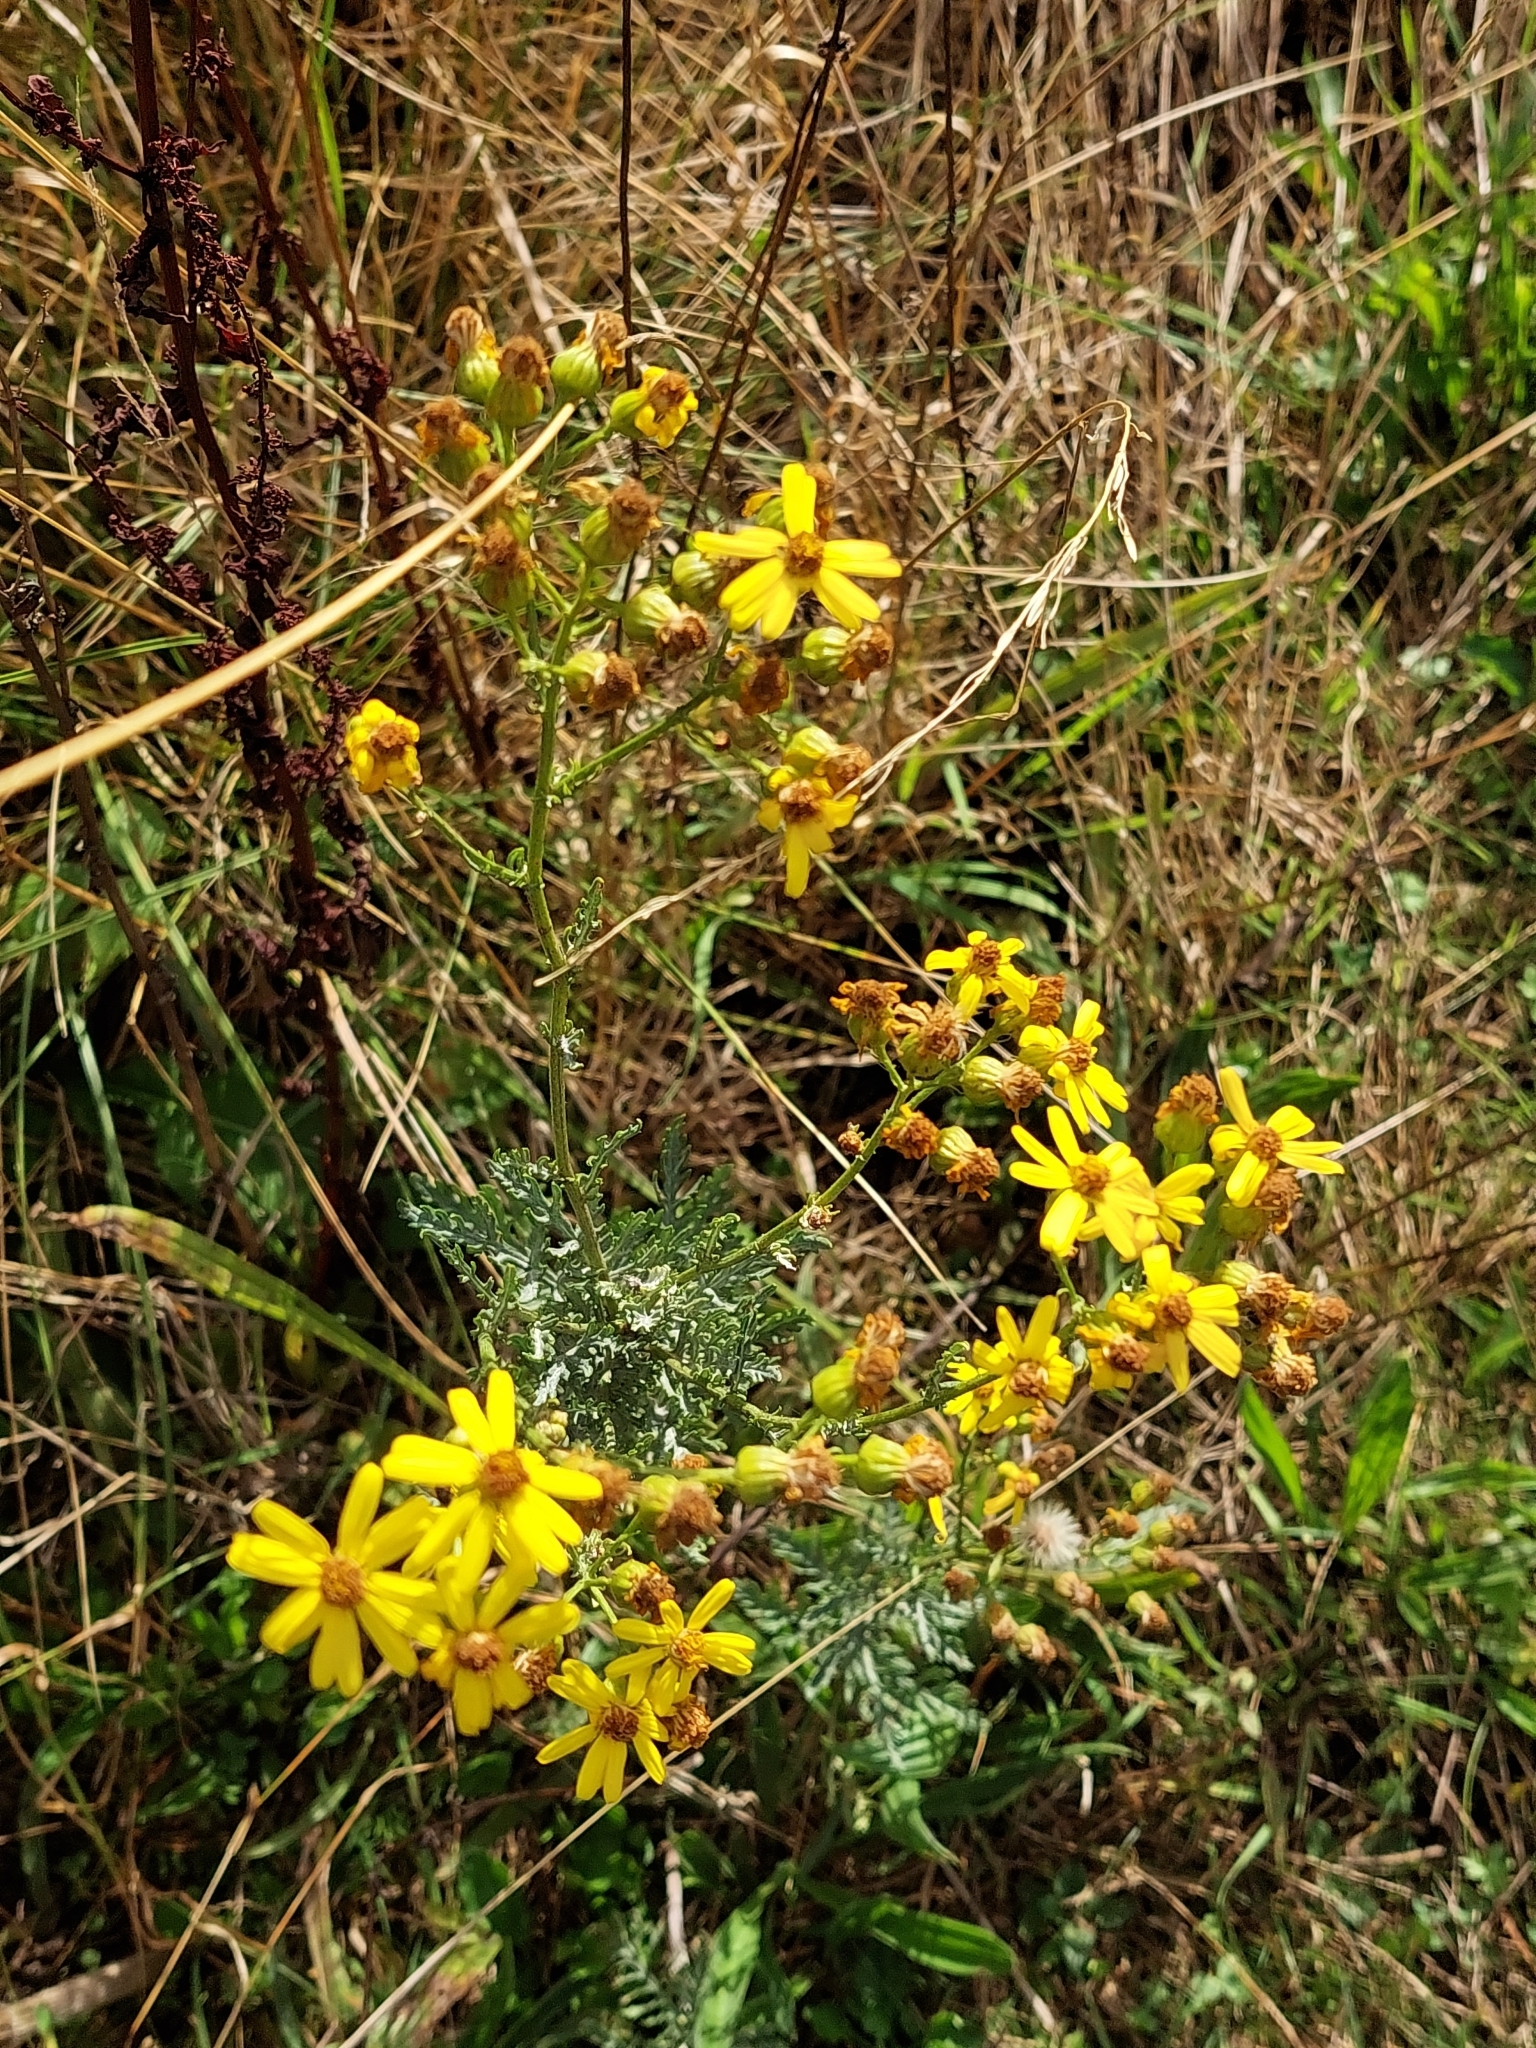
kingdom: Plantae
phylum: Tracheophyta
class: Magnoliopsida
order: Asterales
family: Asteraceae
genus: Jacobaea
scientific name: Jacobaea vulgaris
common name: Stinking willie
